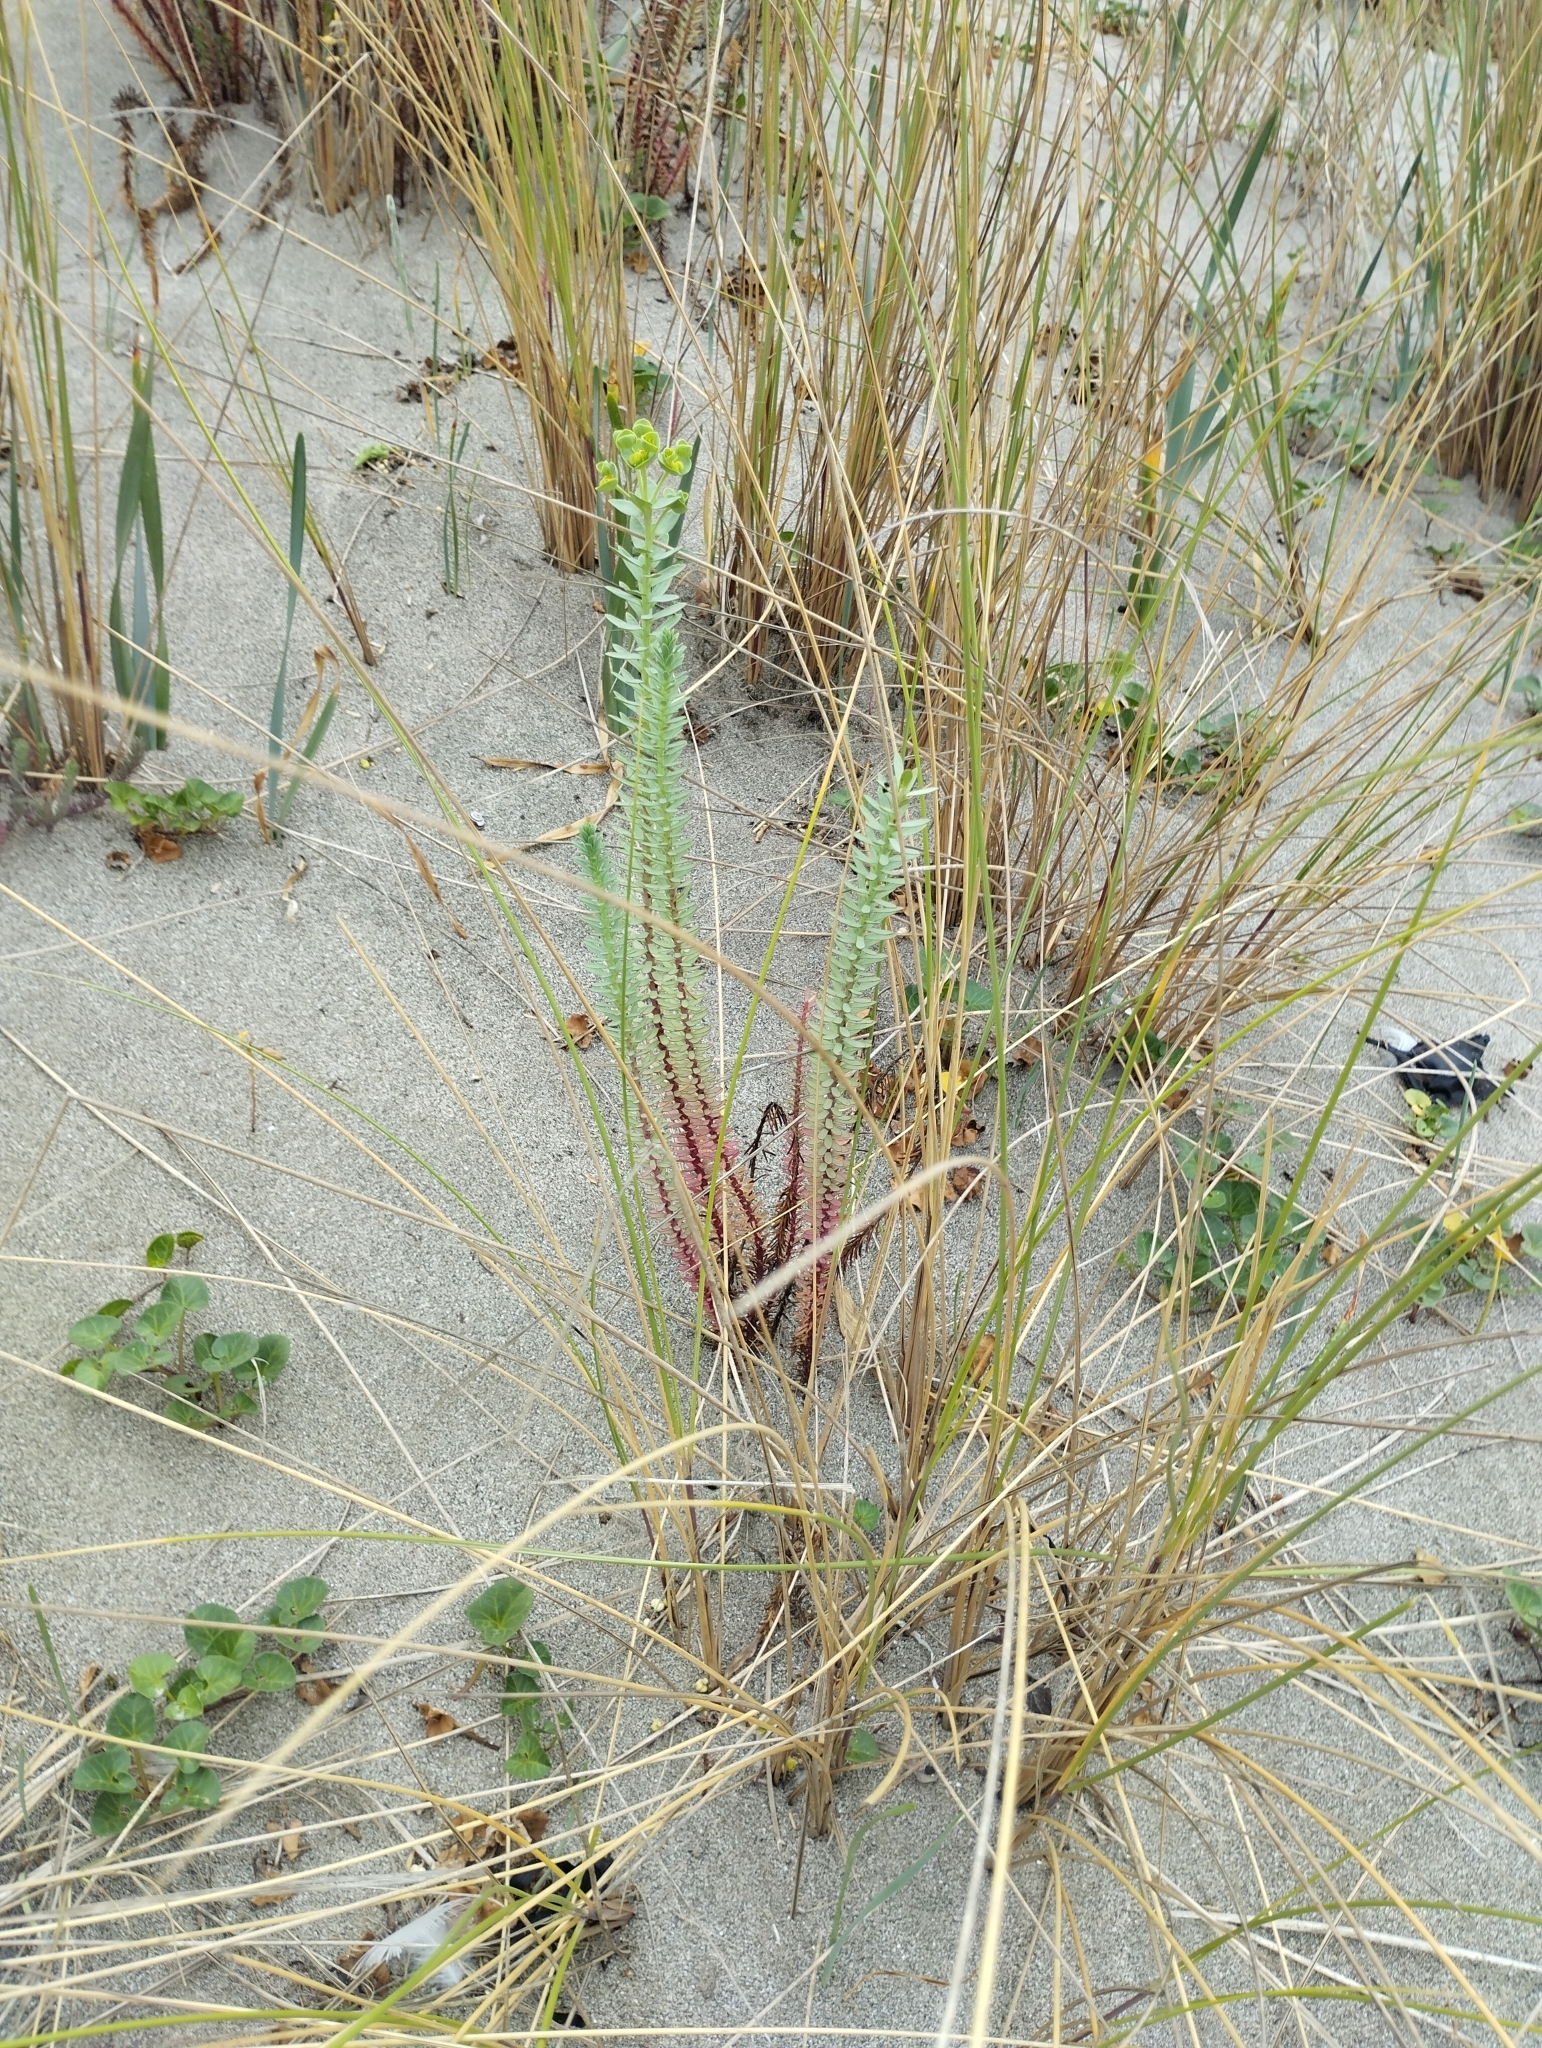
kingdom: Plantae
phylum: Tracheophyta
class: Magnoliopsida
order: Malpighiales
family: Euphorbiaceae
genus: Euphorbia
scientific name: Euphorbia paralias
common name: Sea spurge
